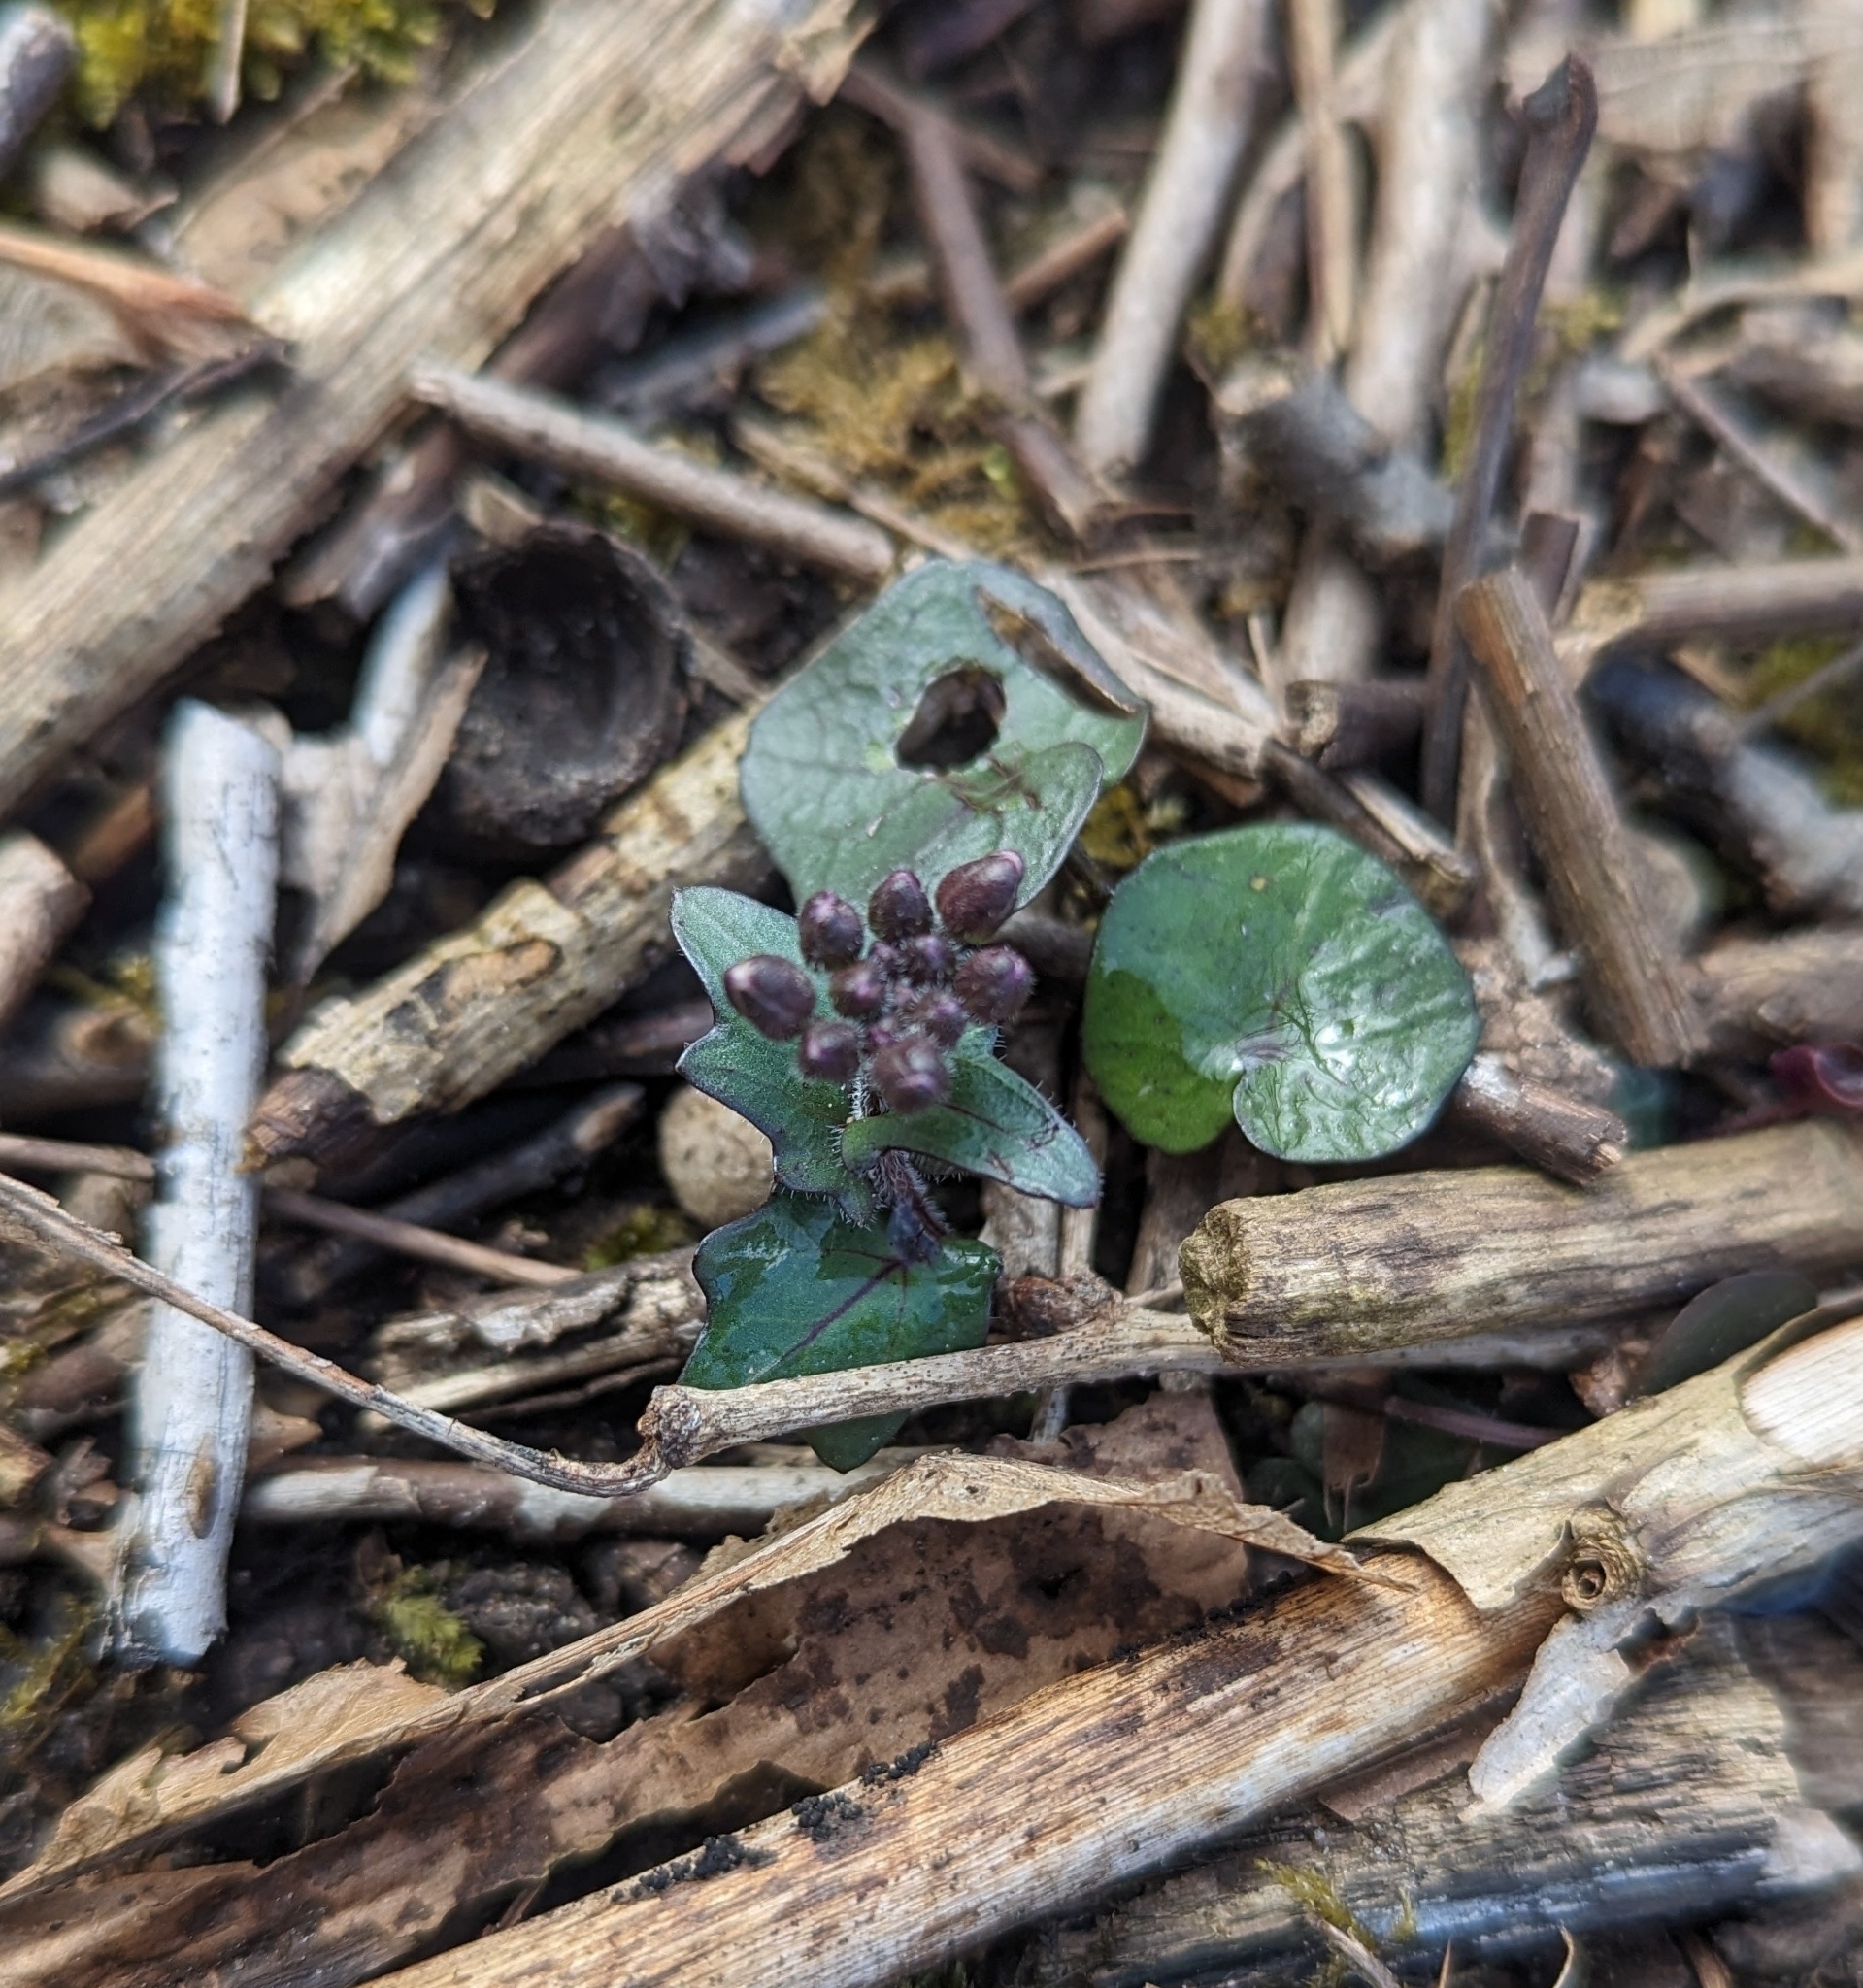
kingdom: Plantae
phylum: Tracheophyta
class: Magnoliopsida
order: Brassicales
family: Brassicaceae
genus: Cardamine
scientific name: Cardamine douglassii
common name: Purple cress
